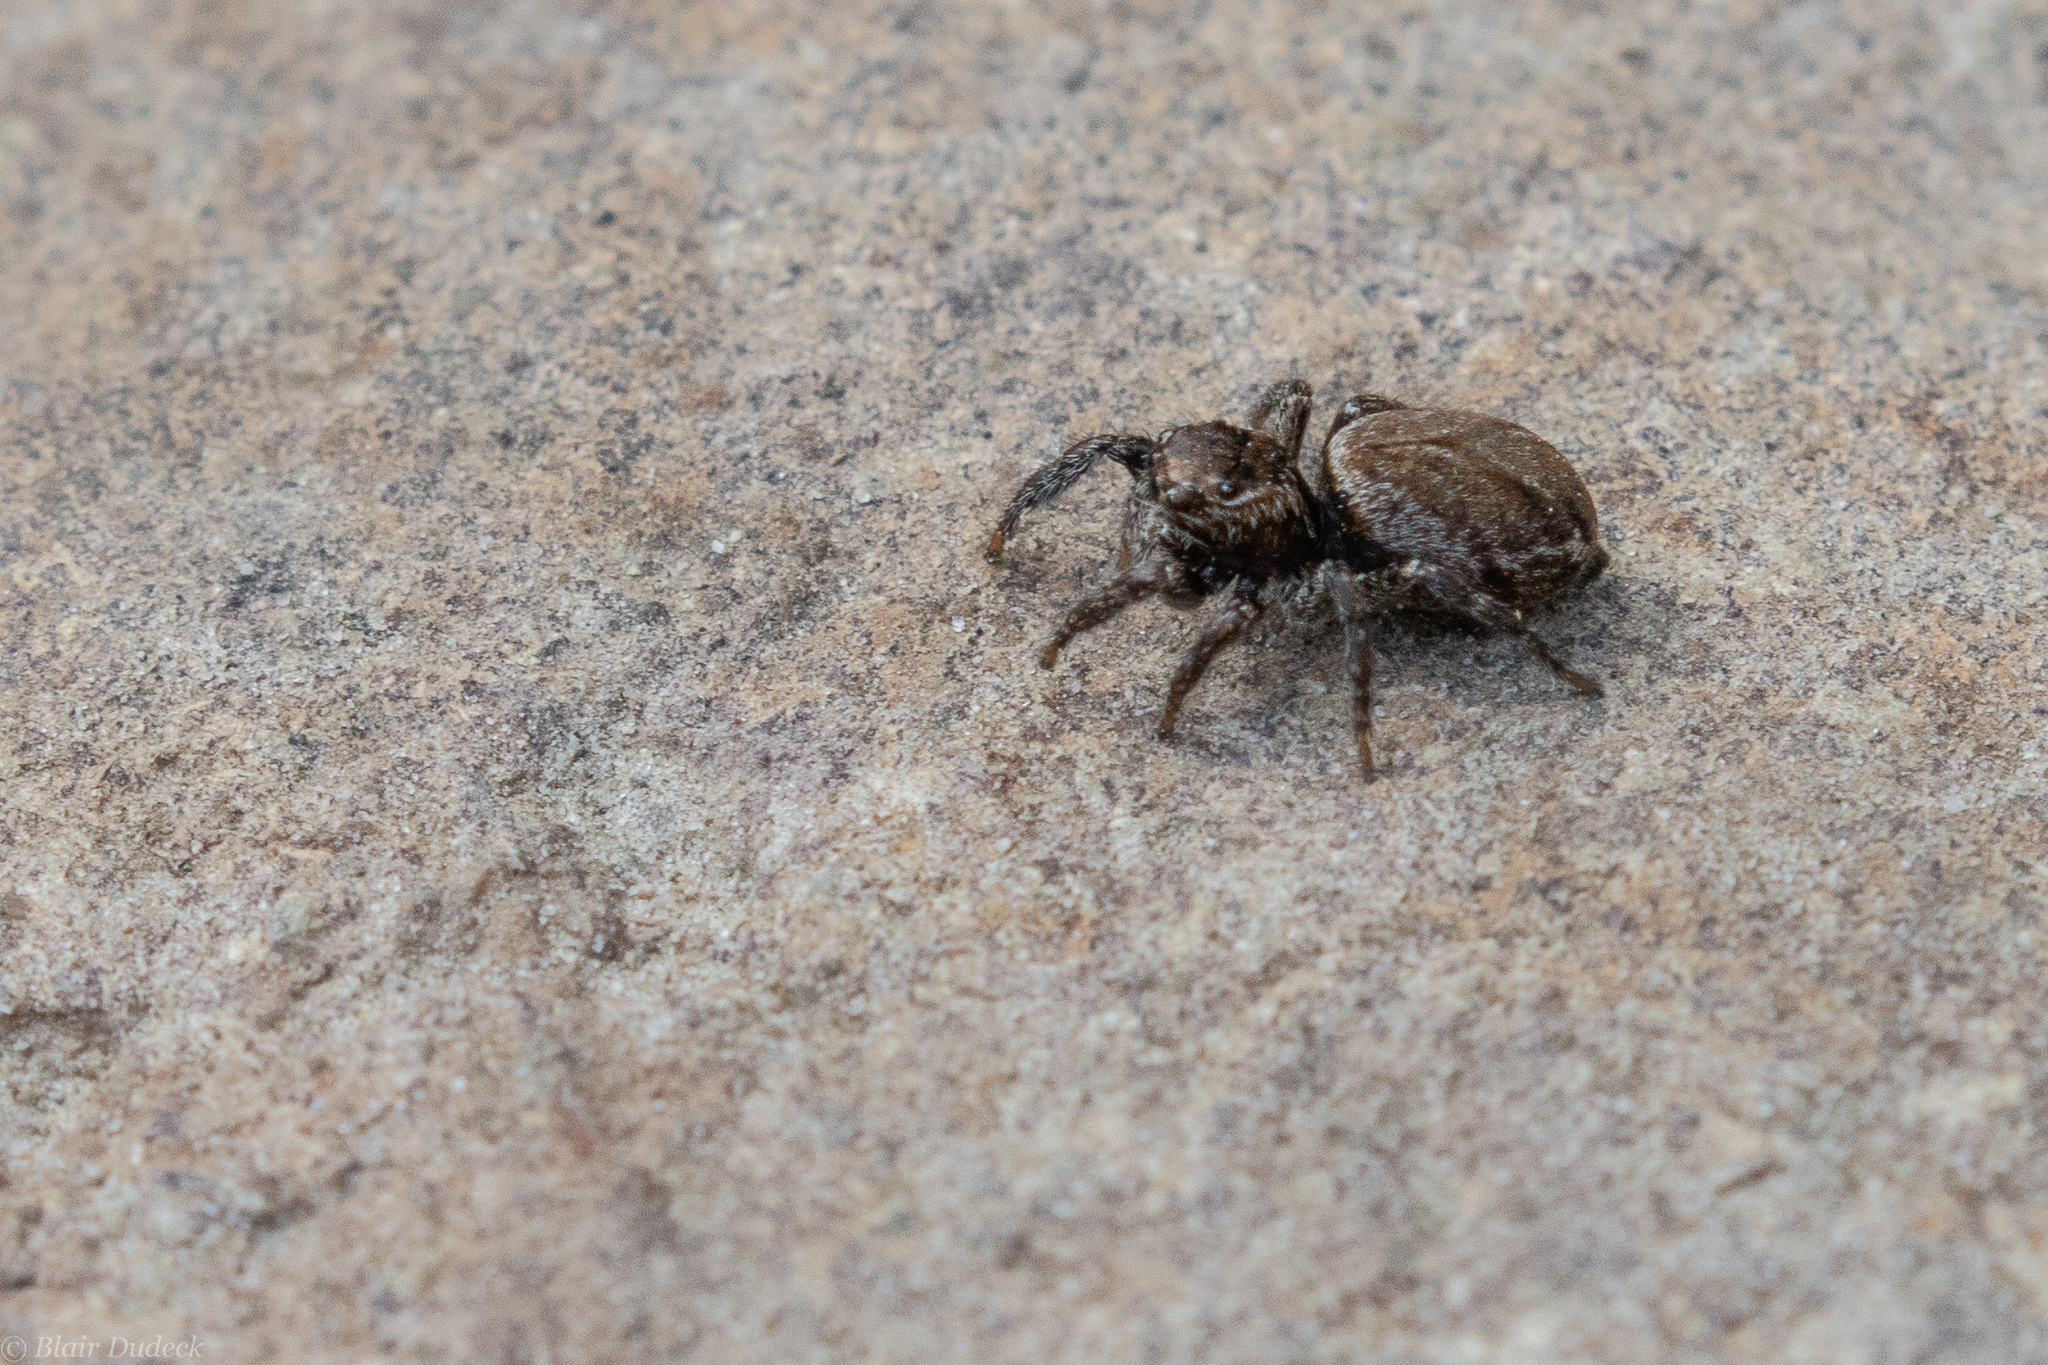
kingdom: Animalia
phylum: Arthropoda
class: Arachnida
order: Araneae
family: Salticidae
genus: Evarcha
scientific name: Evarcha proszynskii
